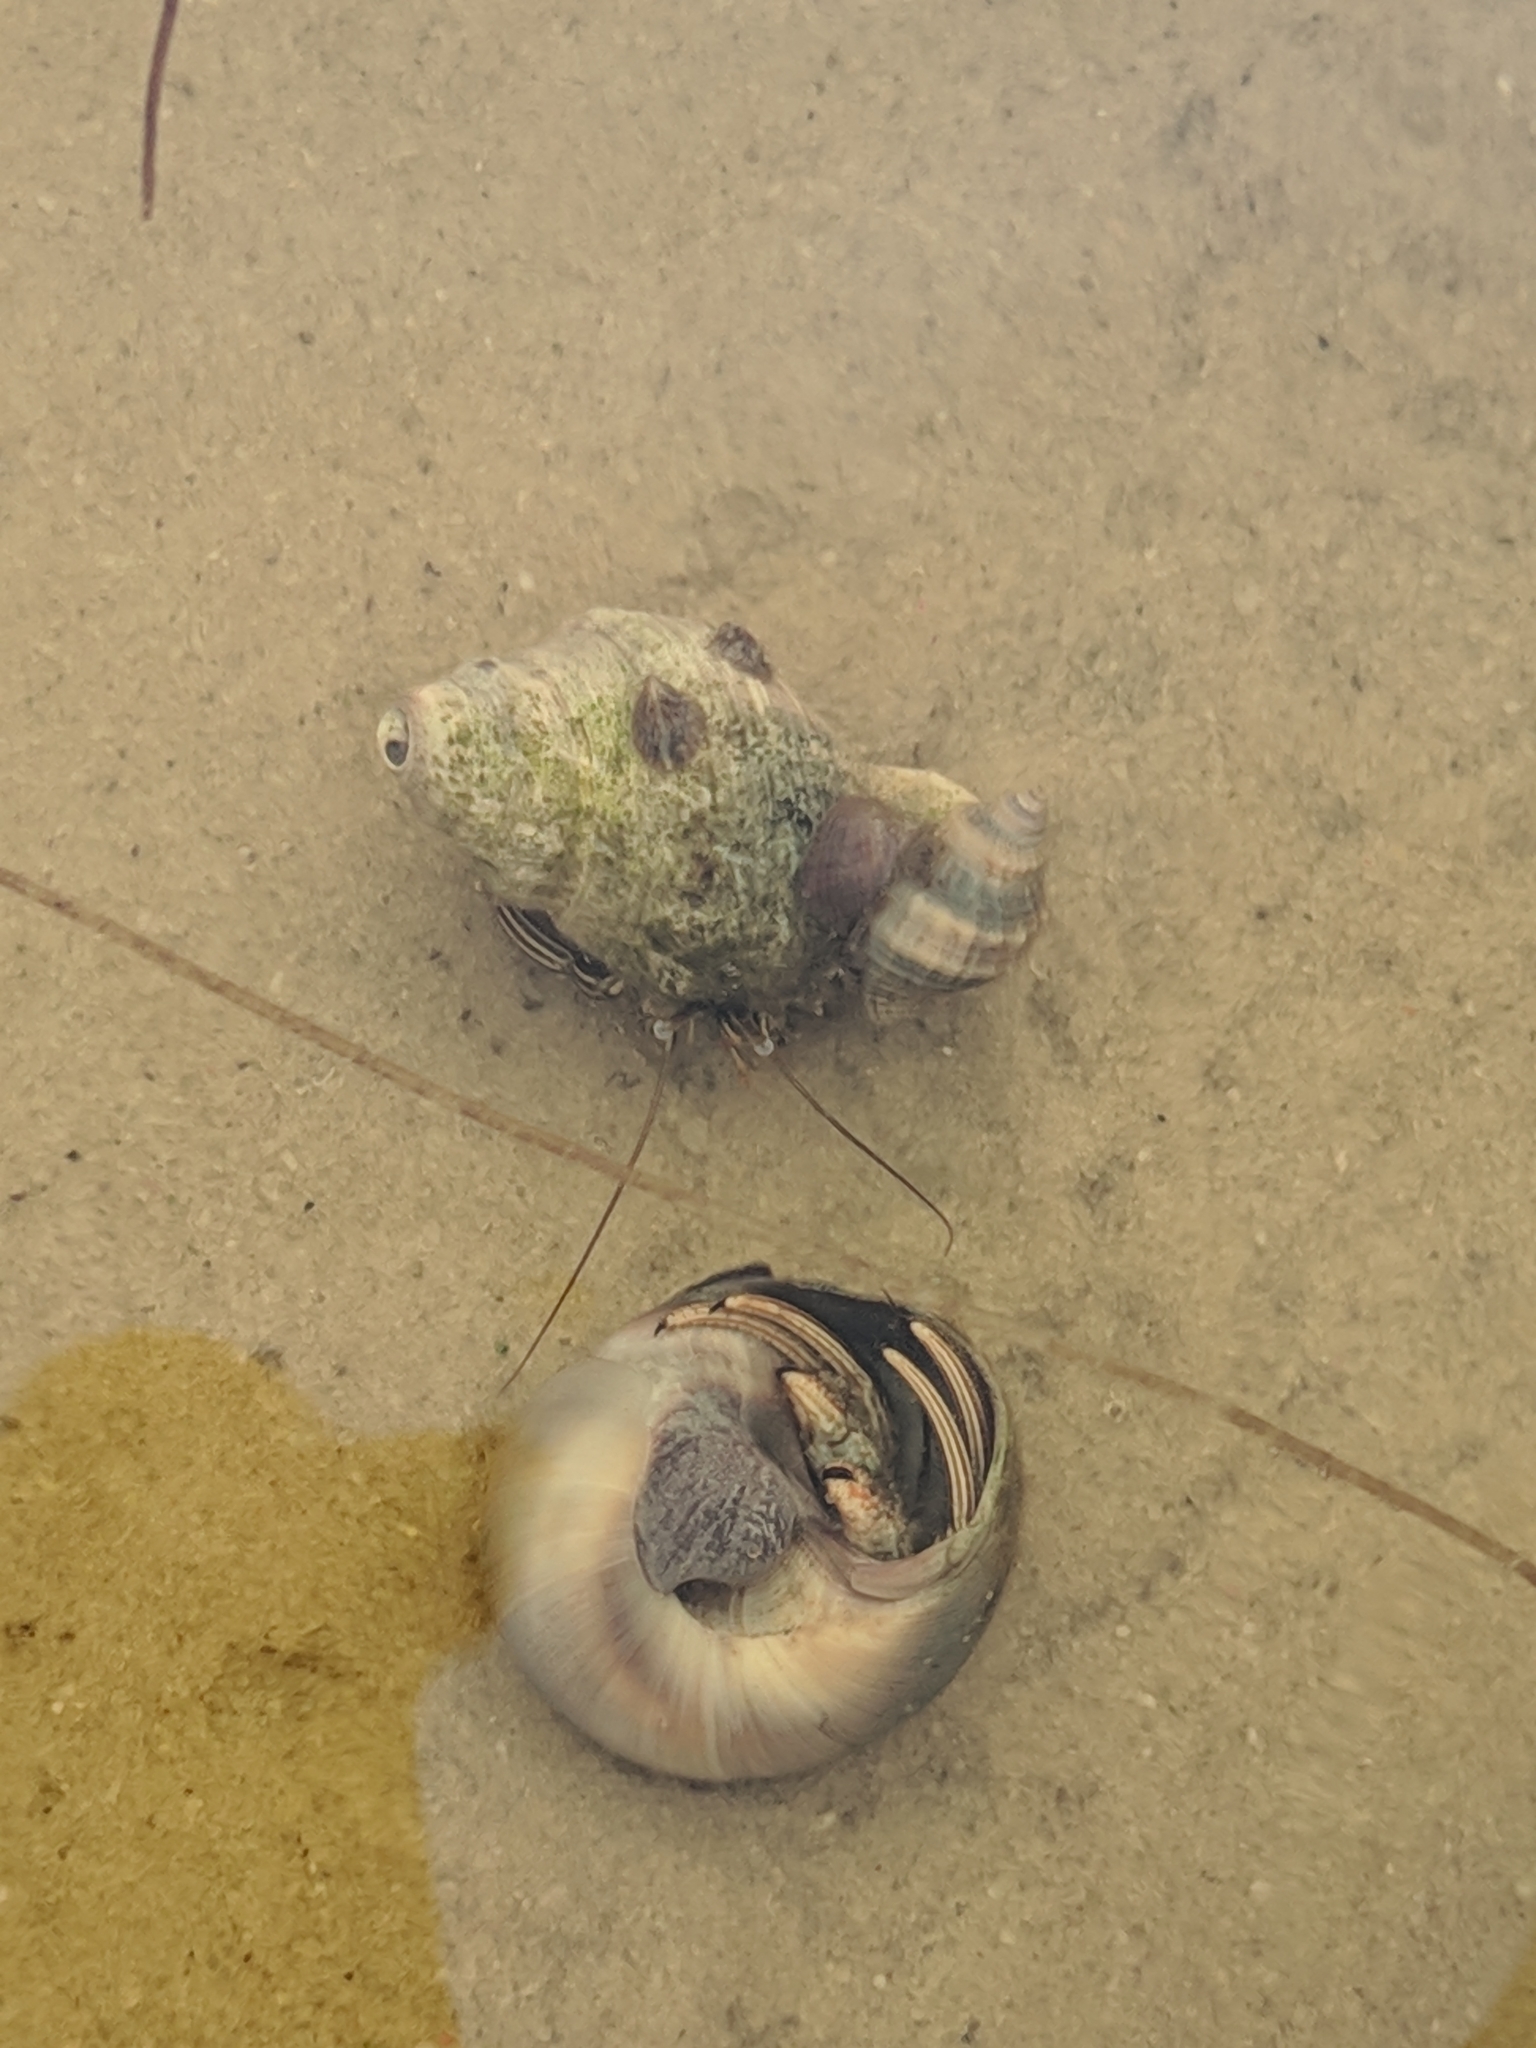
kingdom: Animalia
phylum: Arthropoda
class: Malacostraca
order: Decapoda
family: Diogenidae
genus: Clibanarius
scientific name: Clibanarius vittatus
